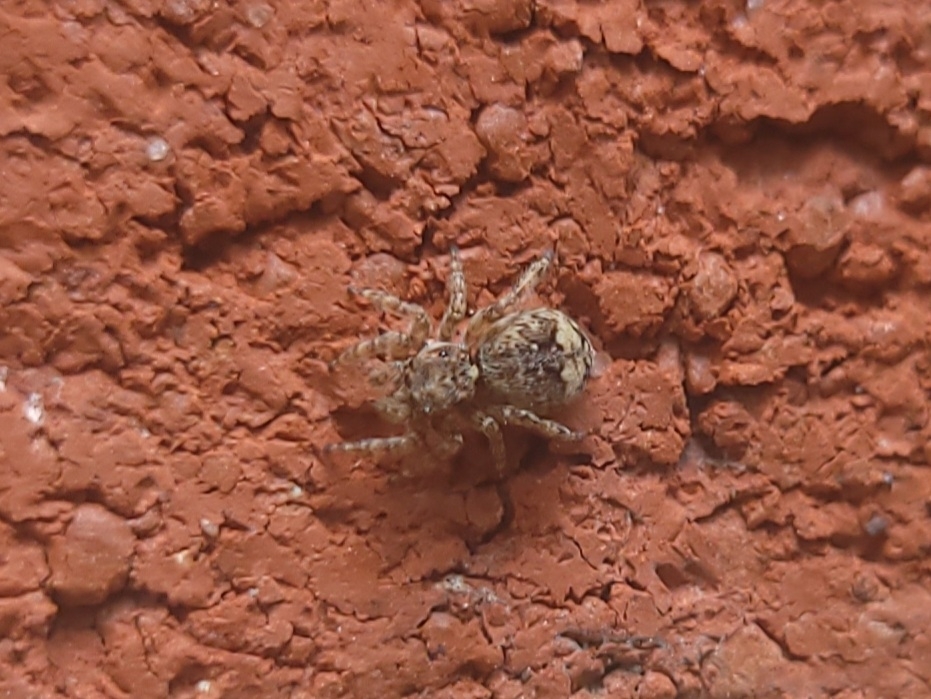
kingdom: Animalia
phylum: Arthropoda
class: Arachnida
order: Araneae
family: Salticidae
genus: Attulus
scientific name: Attulus fasciger
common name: Asiatic wall jumping spider
